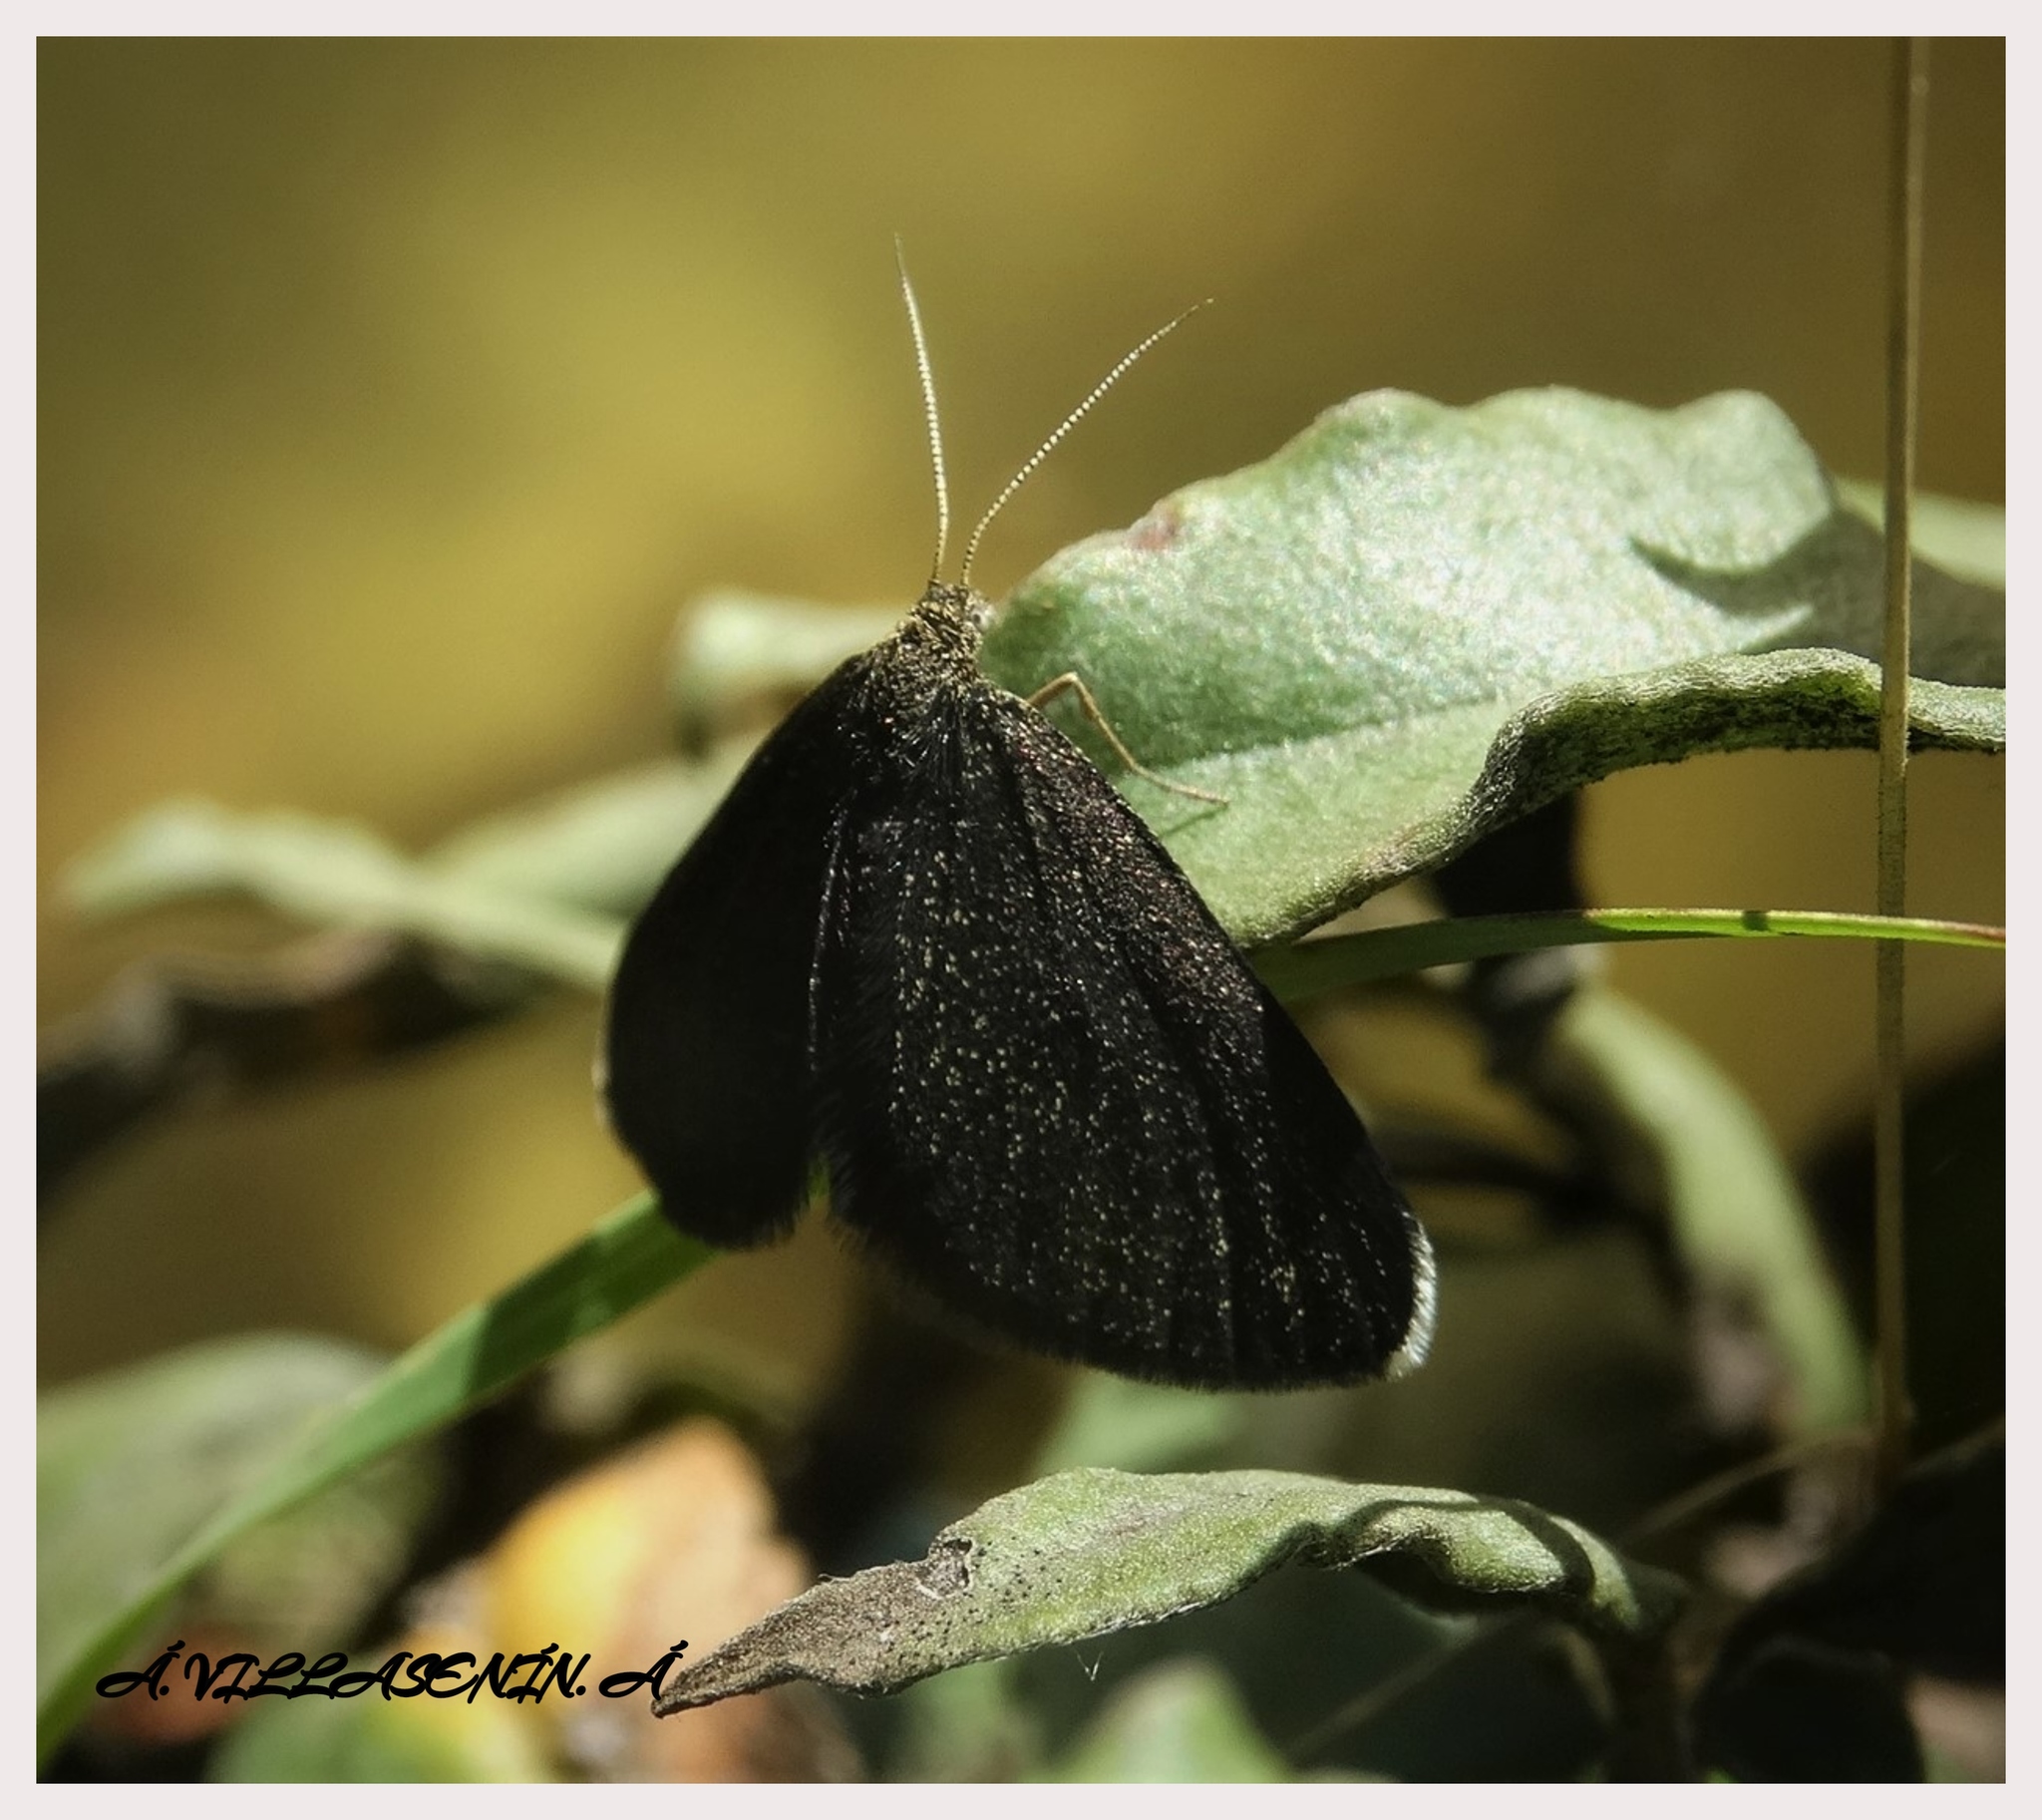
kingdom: Animalia
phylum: Arthropoda
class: Insecta
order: Lepidoptera
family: Geometridae
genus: Odezia
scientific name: Odezia atrata
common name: Chimney sweeper
